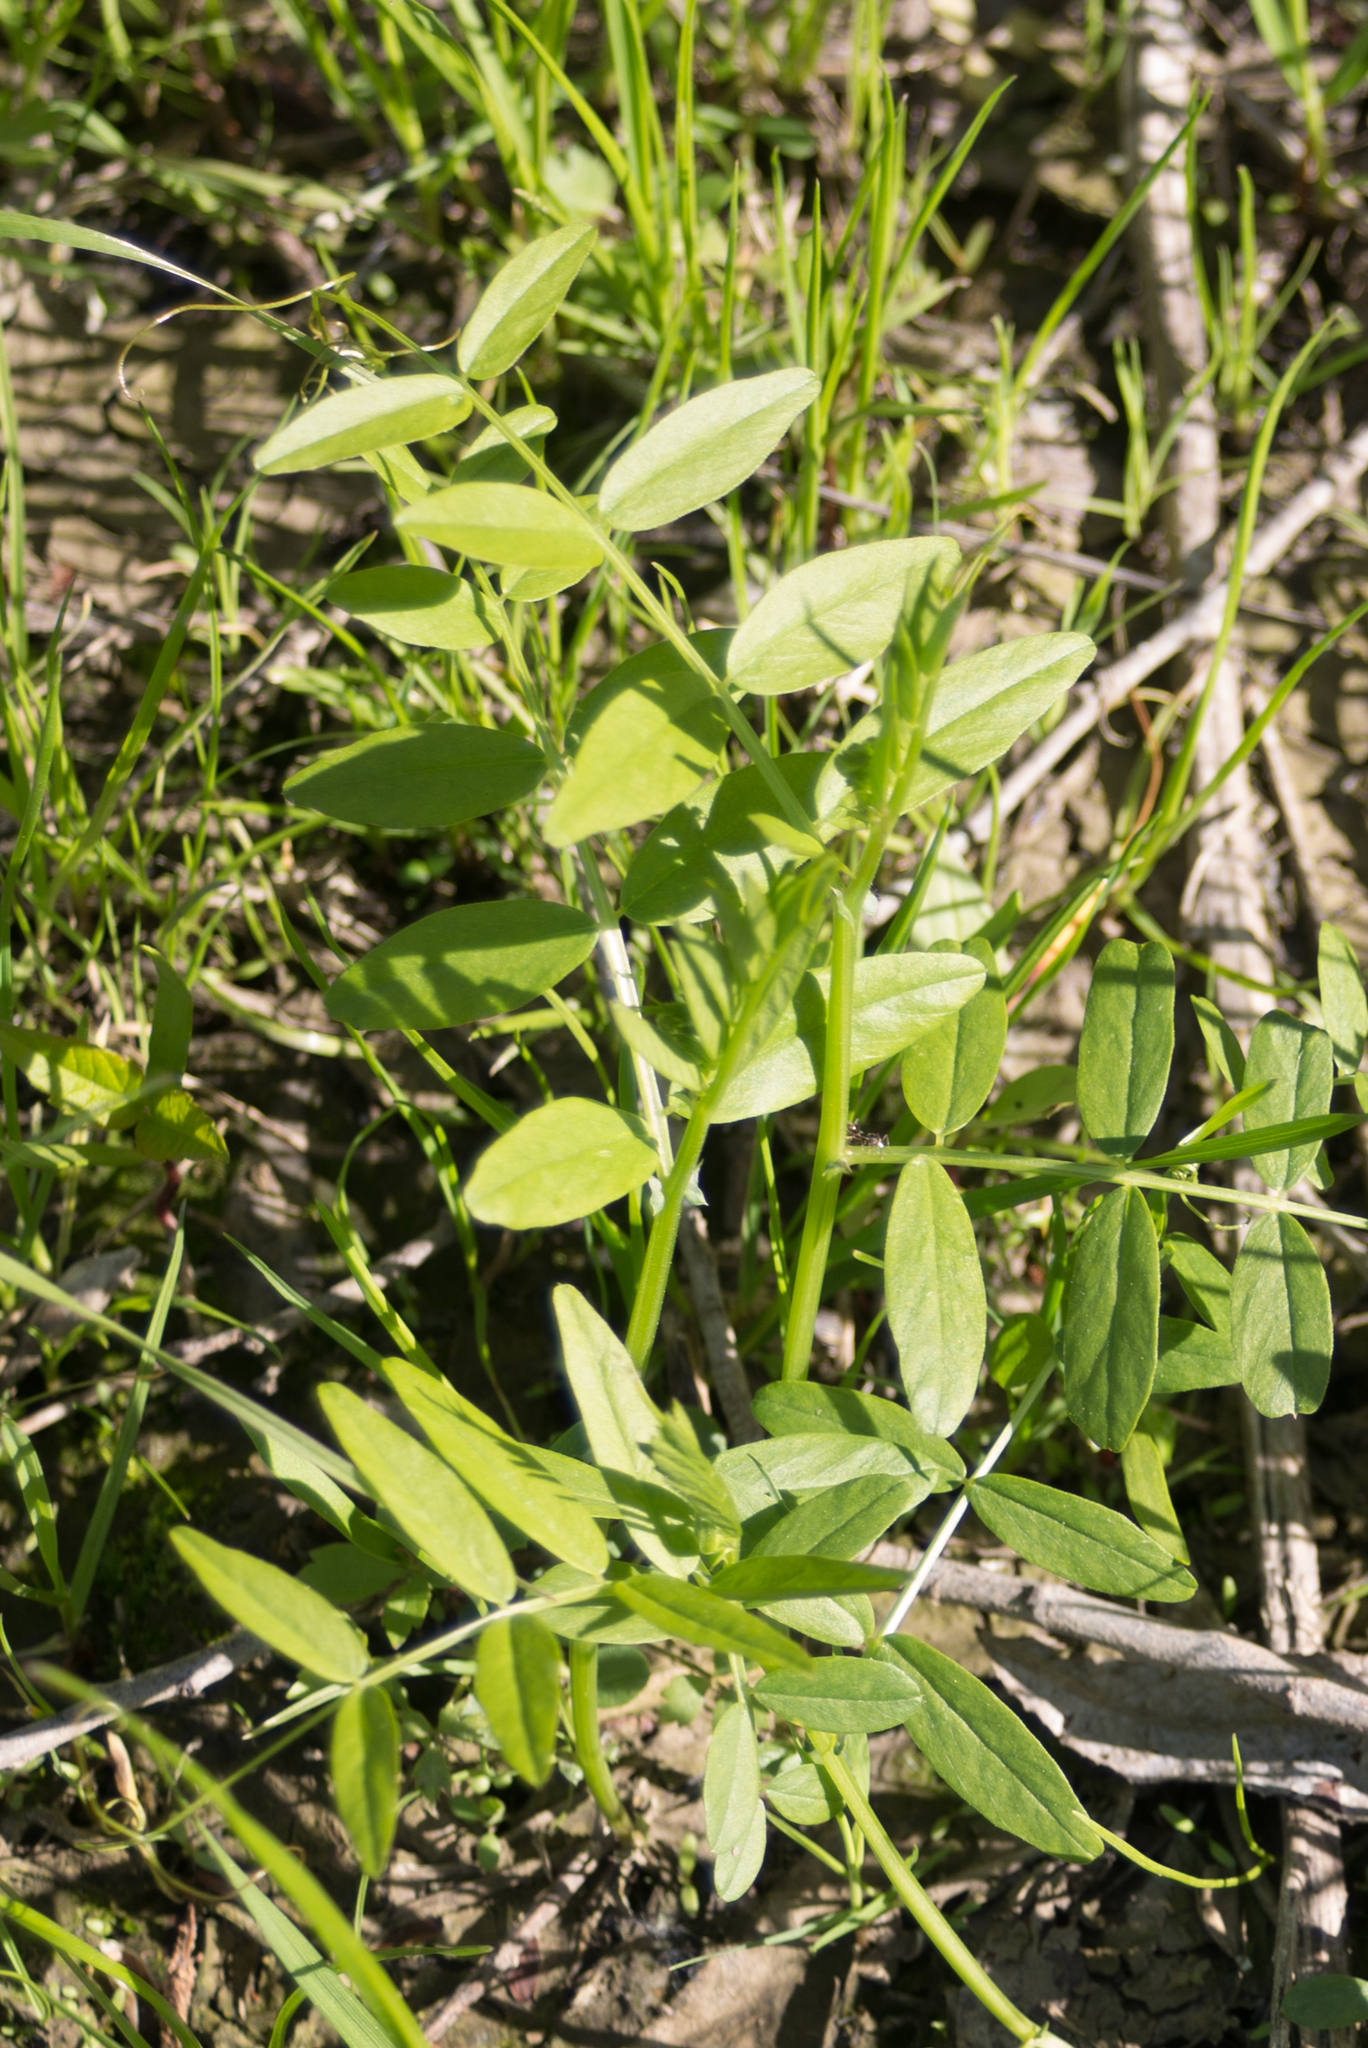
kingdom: Plantae
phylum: Tracheophyta
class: Magnoliopsida
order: Fabales
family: Fabaceae
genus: Vicia
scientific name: Vicia sepium
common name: Bush vetch
